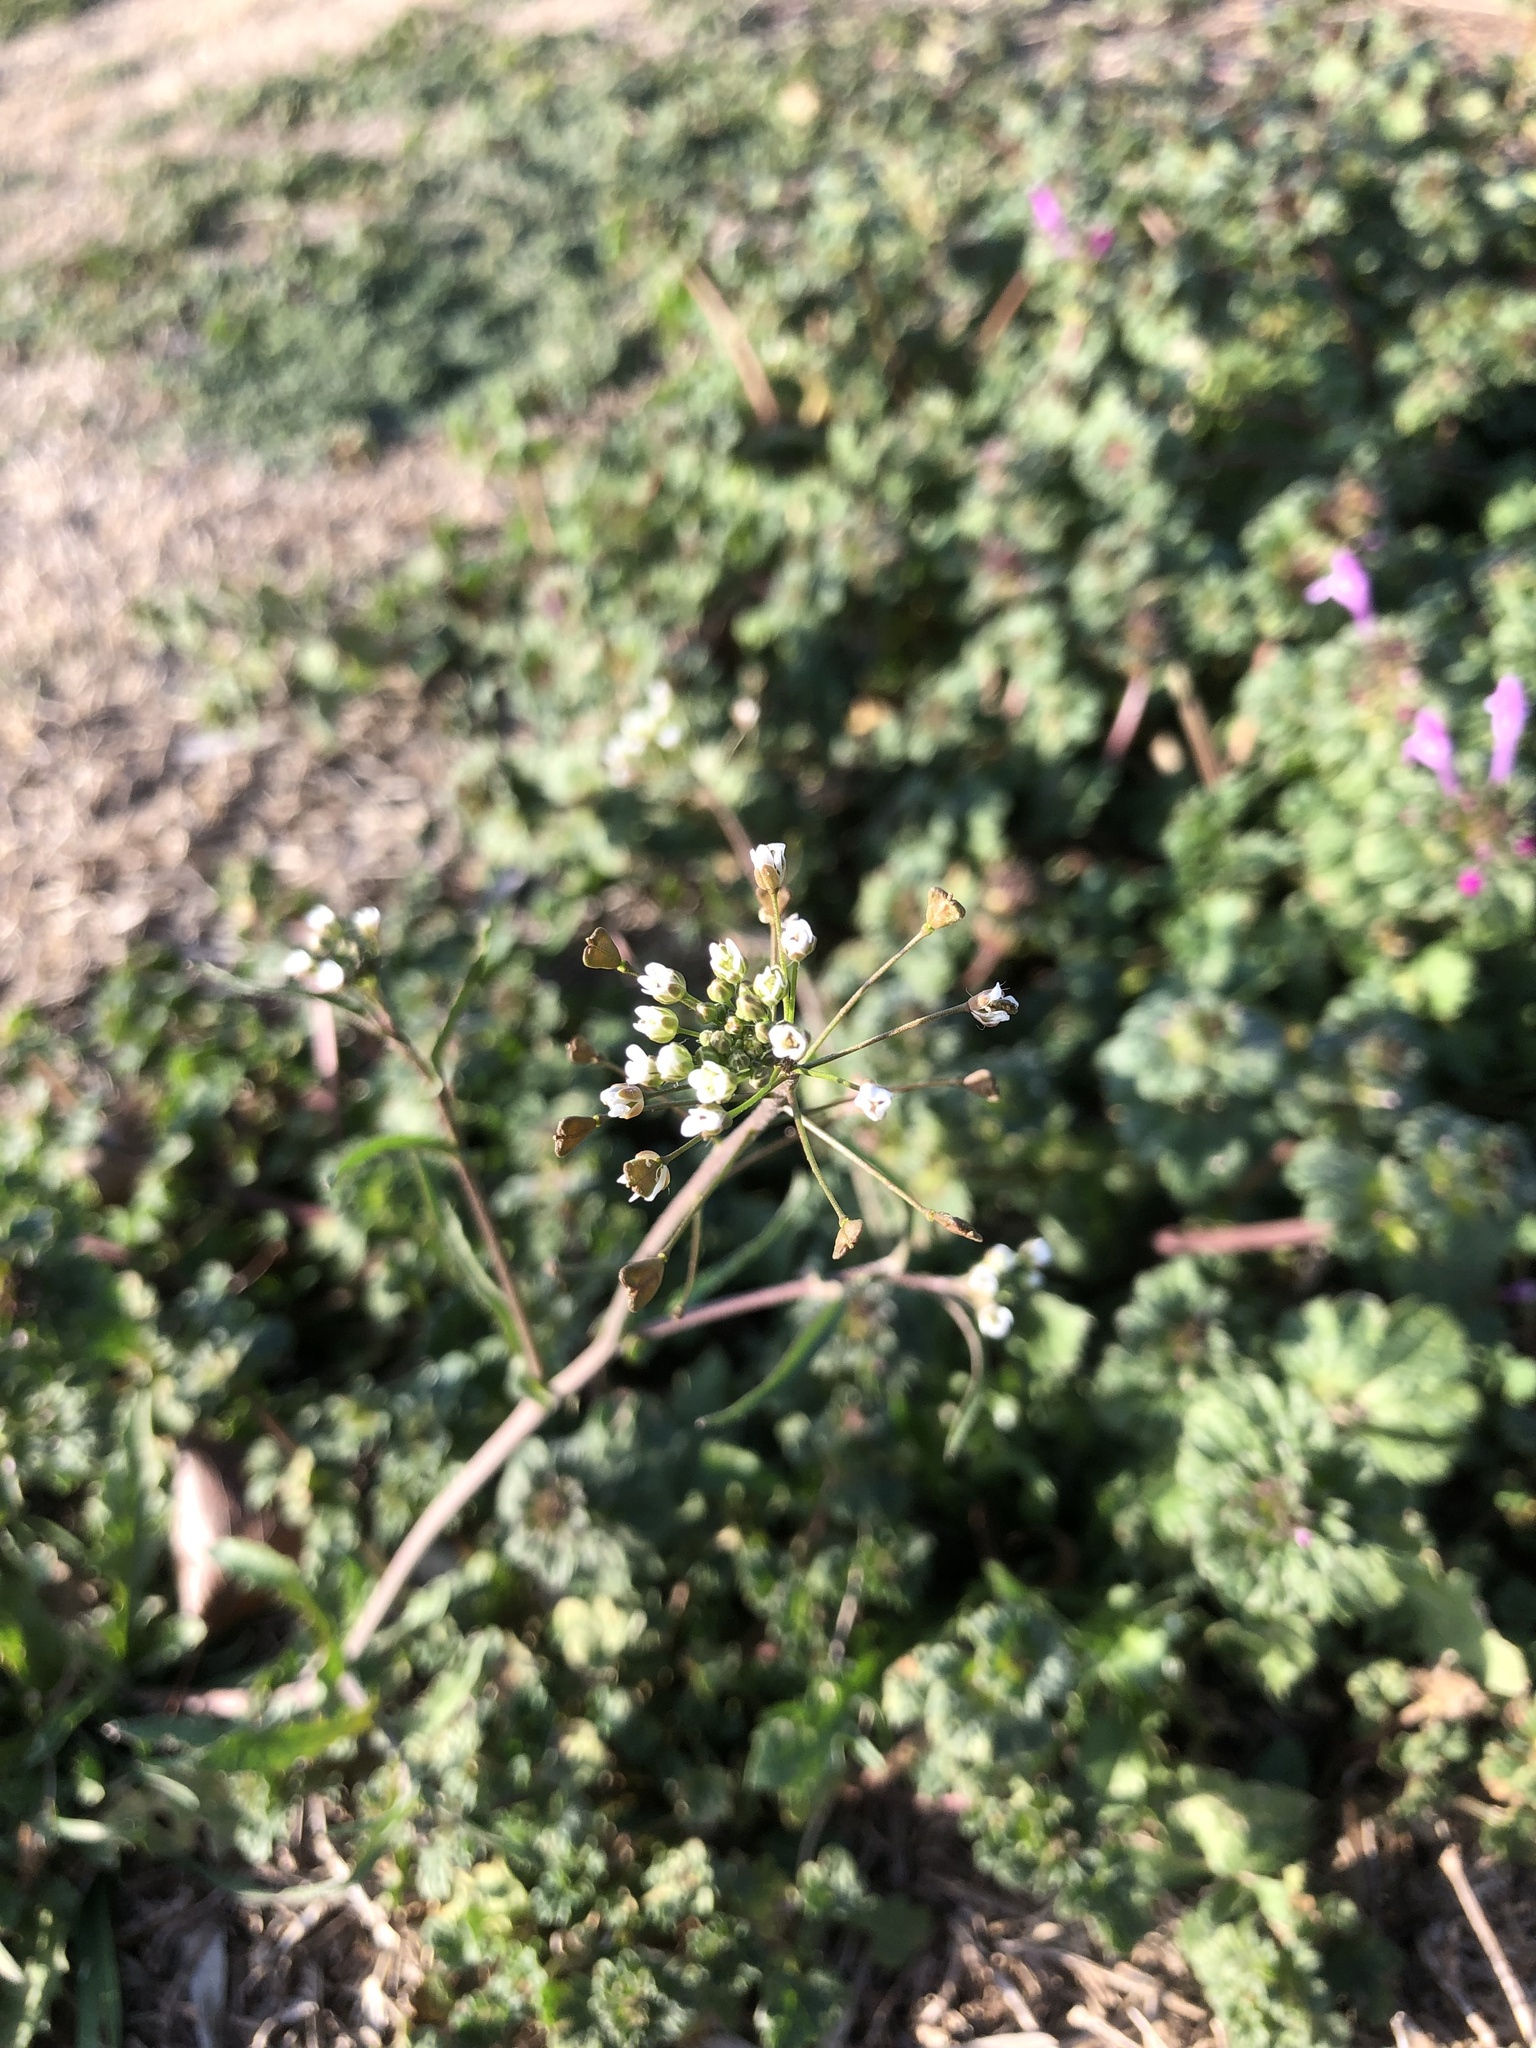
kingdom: Plantae
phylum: Tracheophyta
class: Magnoliopsida
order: Brassicales
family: Brassicaceae
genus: Capsella
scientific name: Capsella bursa-pastoris
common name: Shepherd's purse
